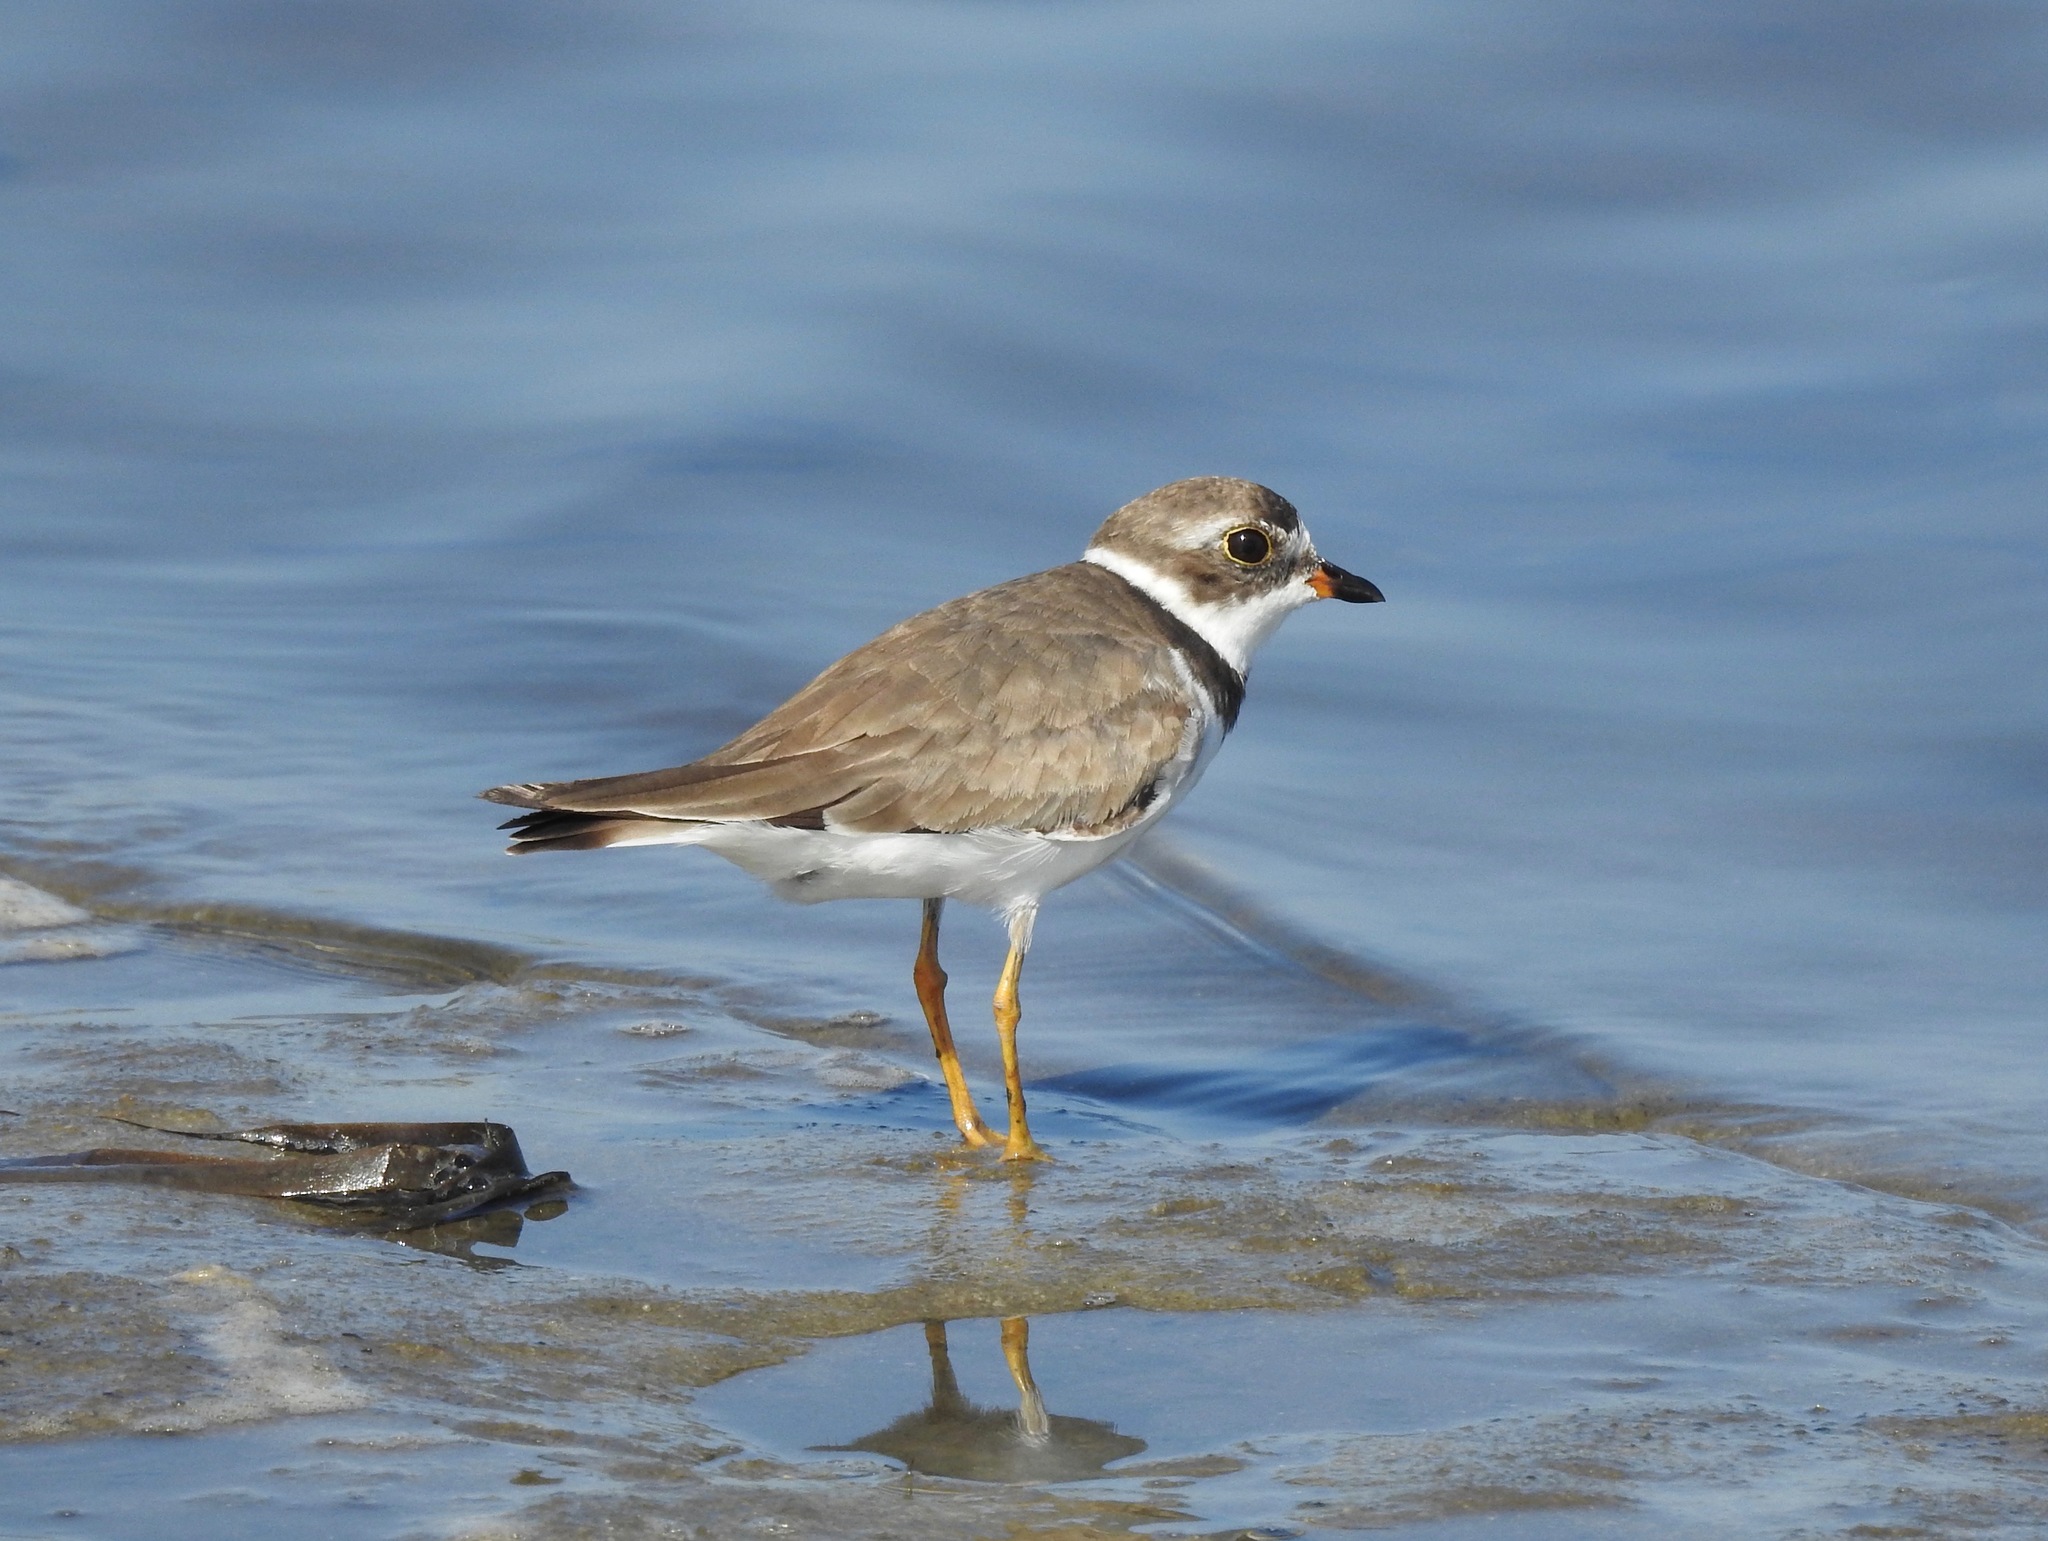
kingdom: Animalia
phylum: Chordata
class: Aves
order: Charadriiformes
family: Charadriidae
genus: Charadrius
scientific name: Charadrius semipalmatus
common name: Semipalmated plover
